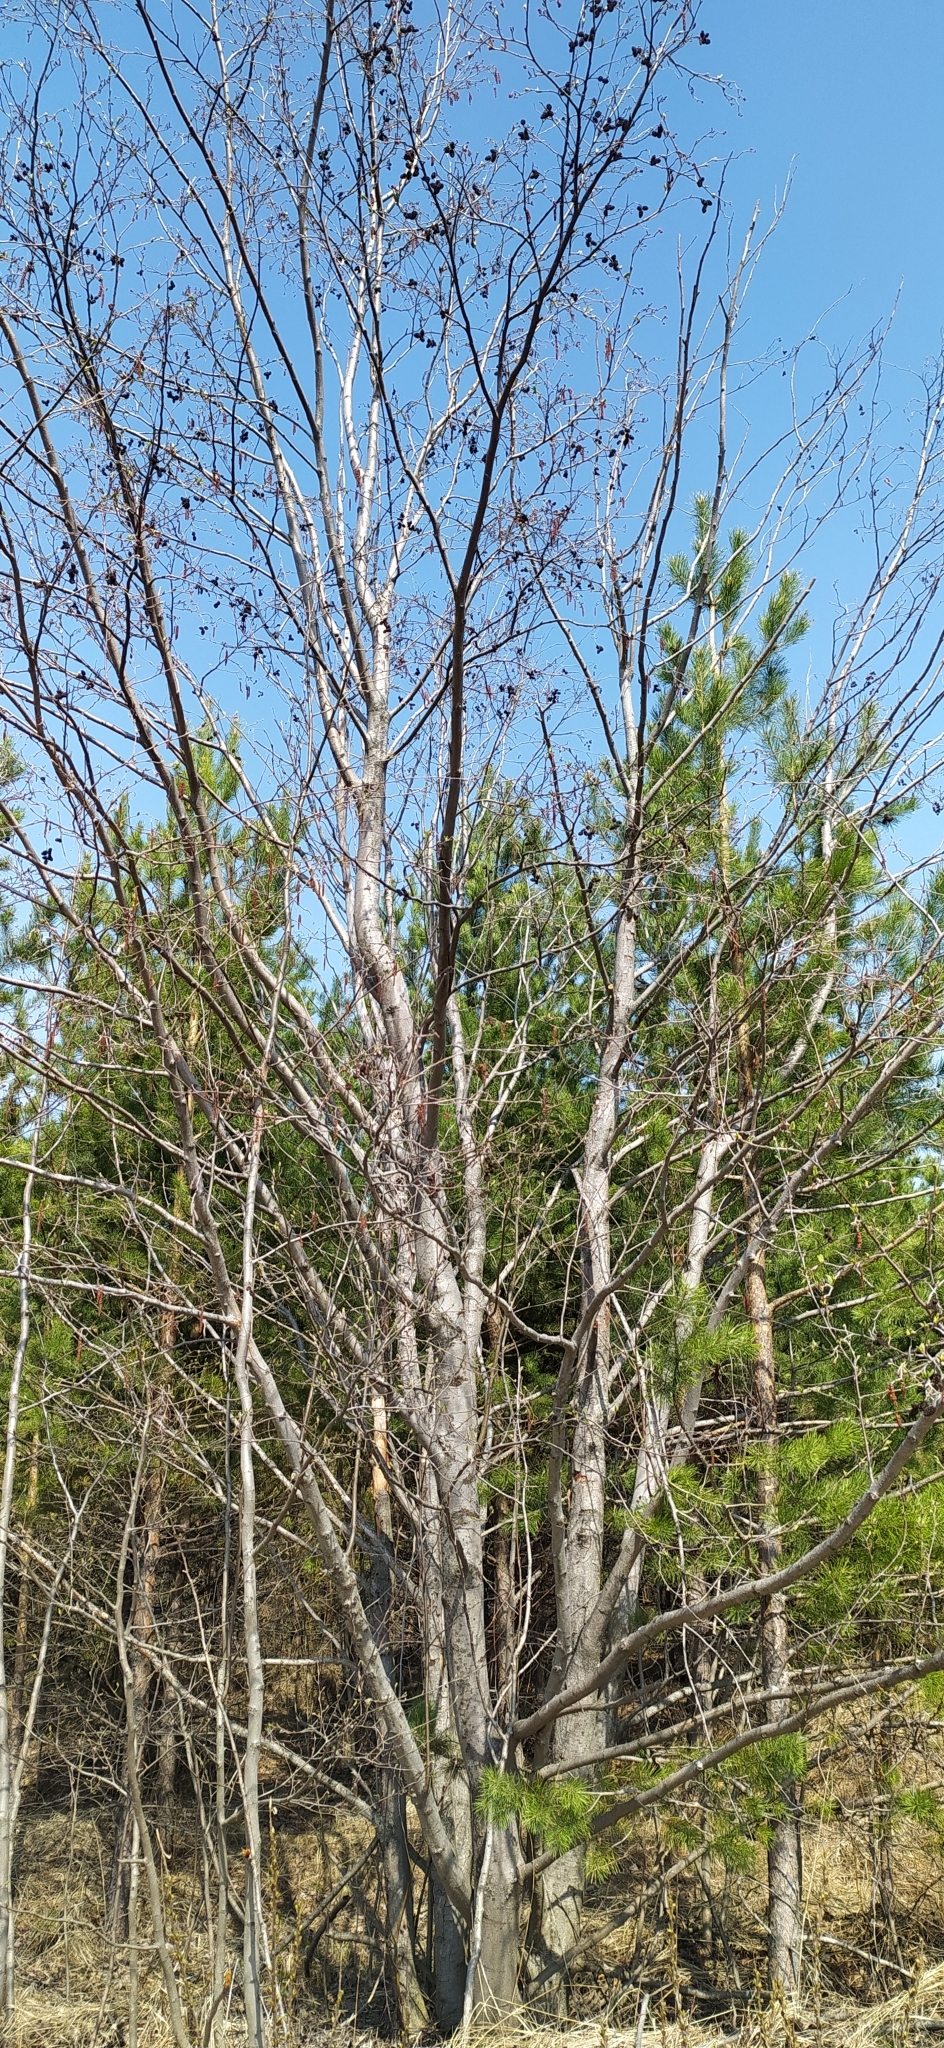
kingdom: Plantae
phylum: Tracheophyta
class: Magnoliopsida
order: Fagales
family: Betulaceae
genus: Alnus
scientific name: Alnus incana
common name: Grey alder
